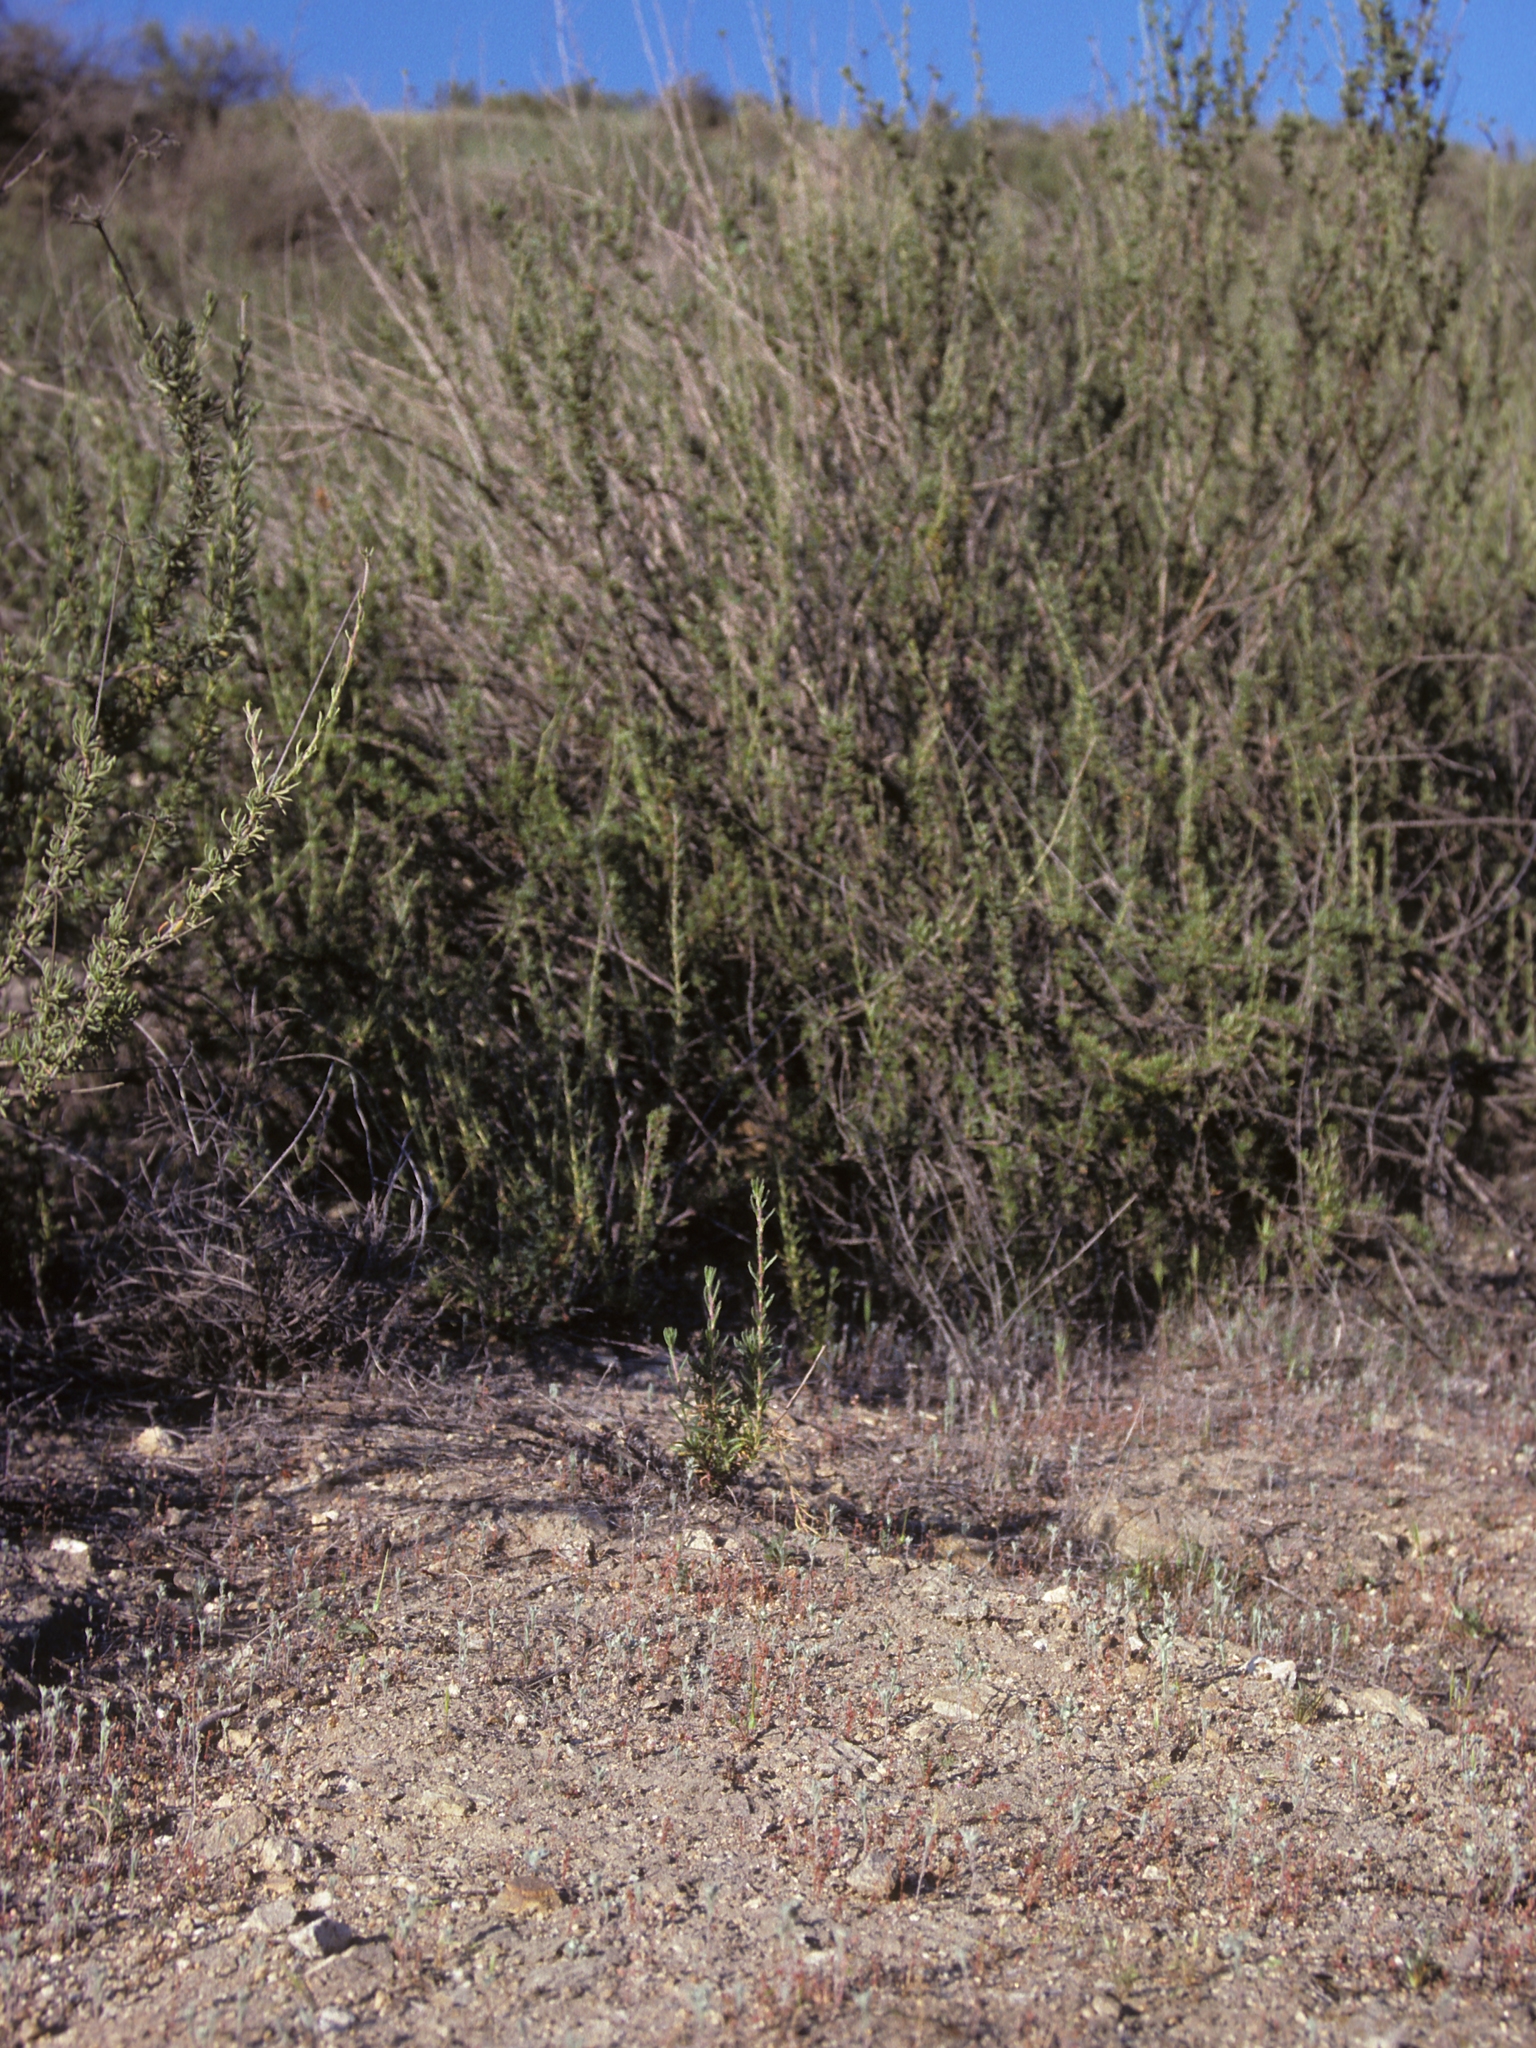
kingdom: Plantae
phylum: Tracheophyta
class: Magnoliopsida
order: Asterales
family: Asteraceae
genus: Stylocline
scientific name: Stylocline gnaphaloides
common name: Everlasting nest-straw
